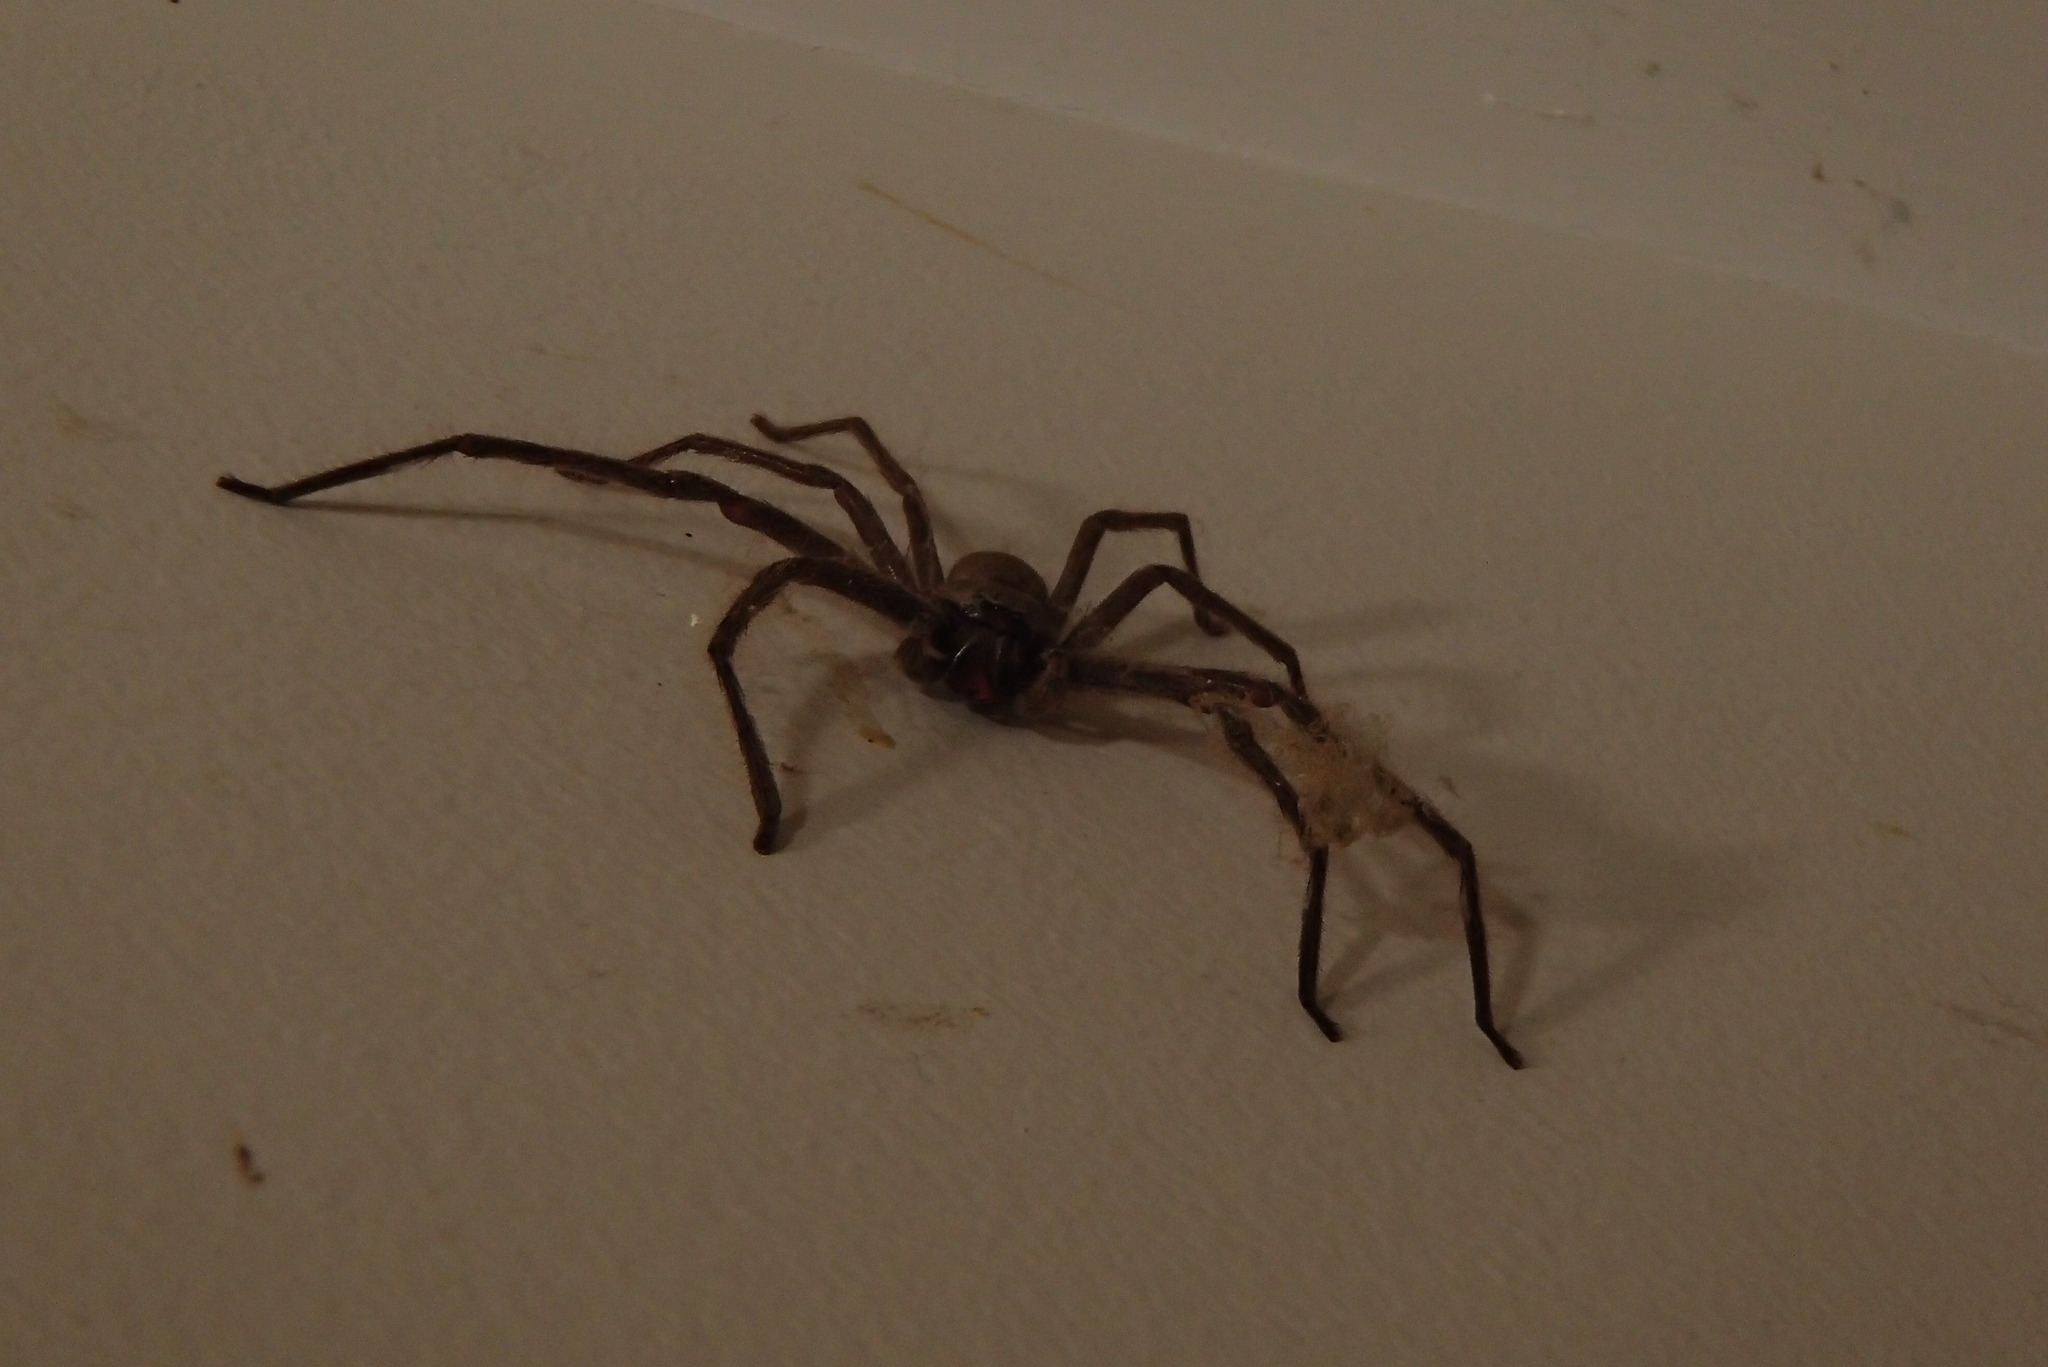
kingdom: Animalia
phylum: Arthropoda
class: Arachnida
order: Araneae
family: Sparassidae
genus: Isopeda
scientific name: Isopeda villosa
